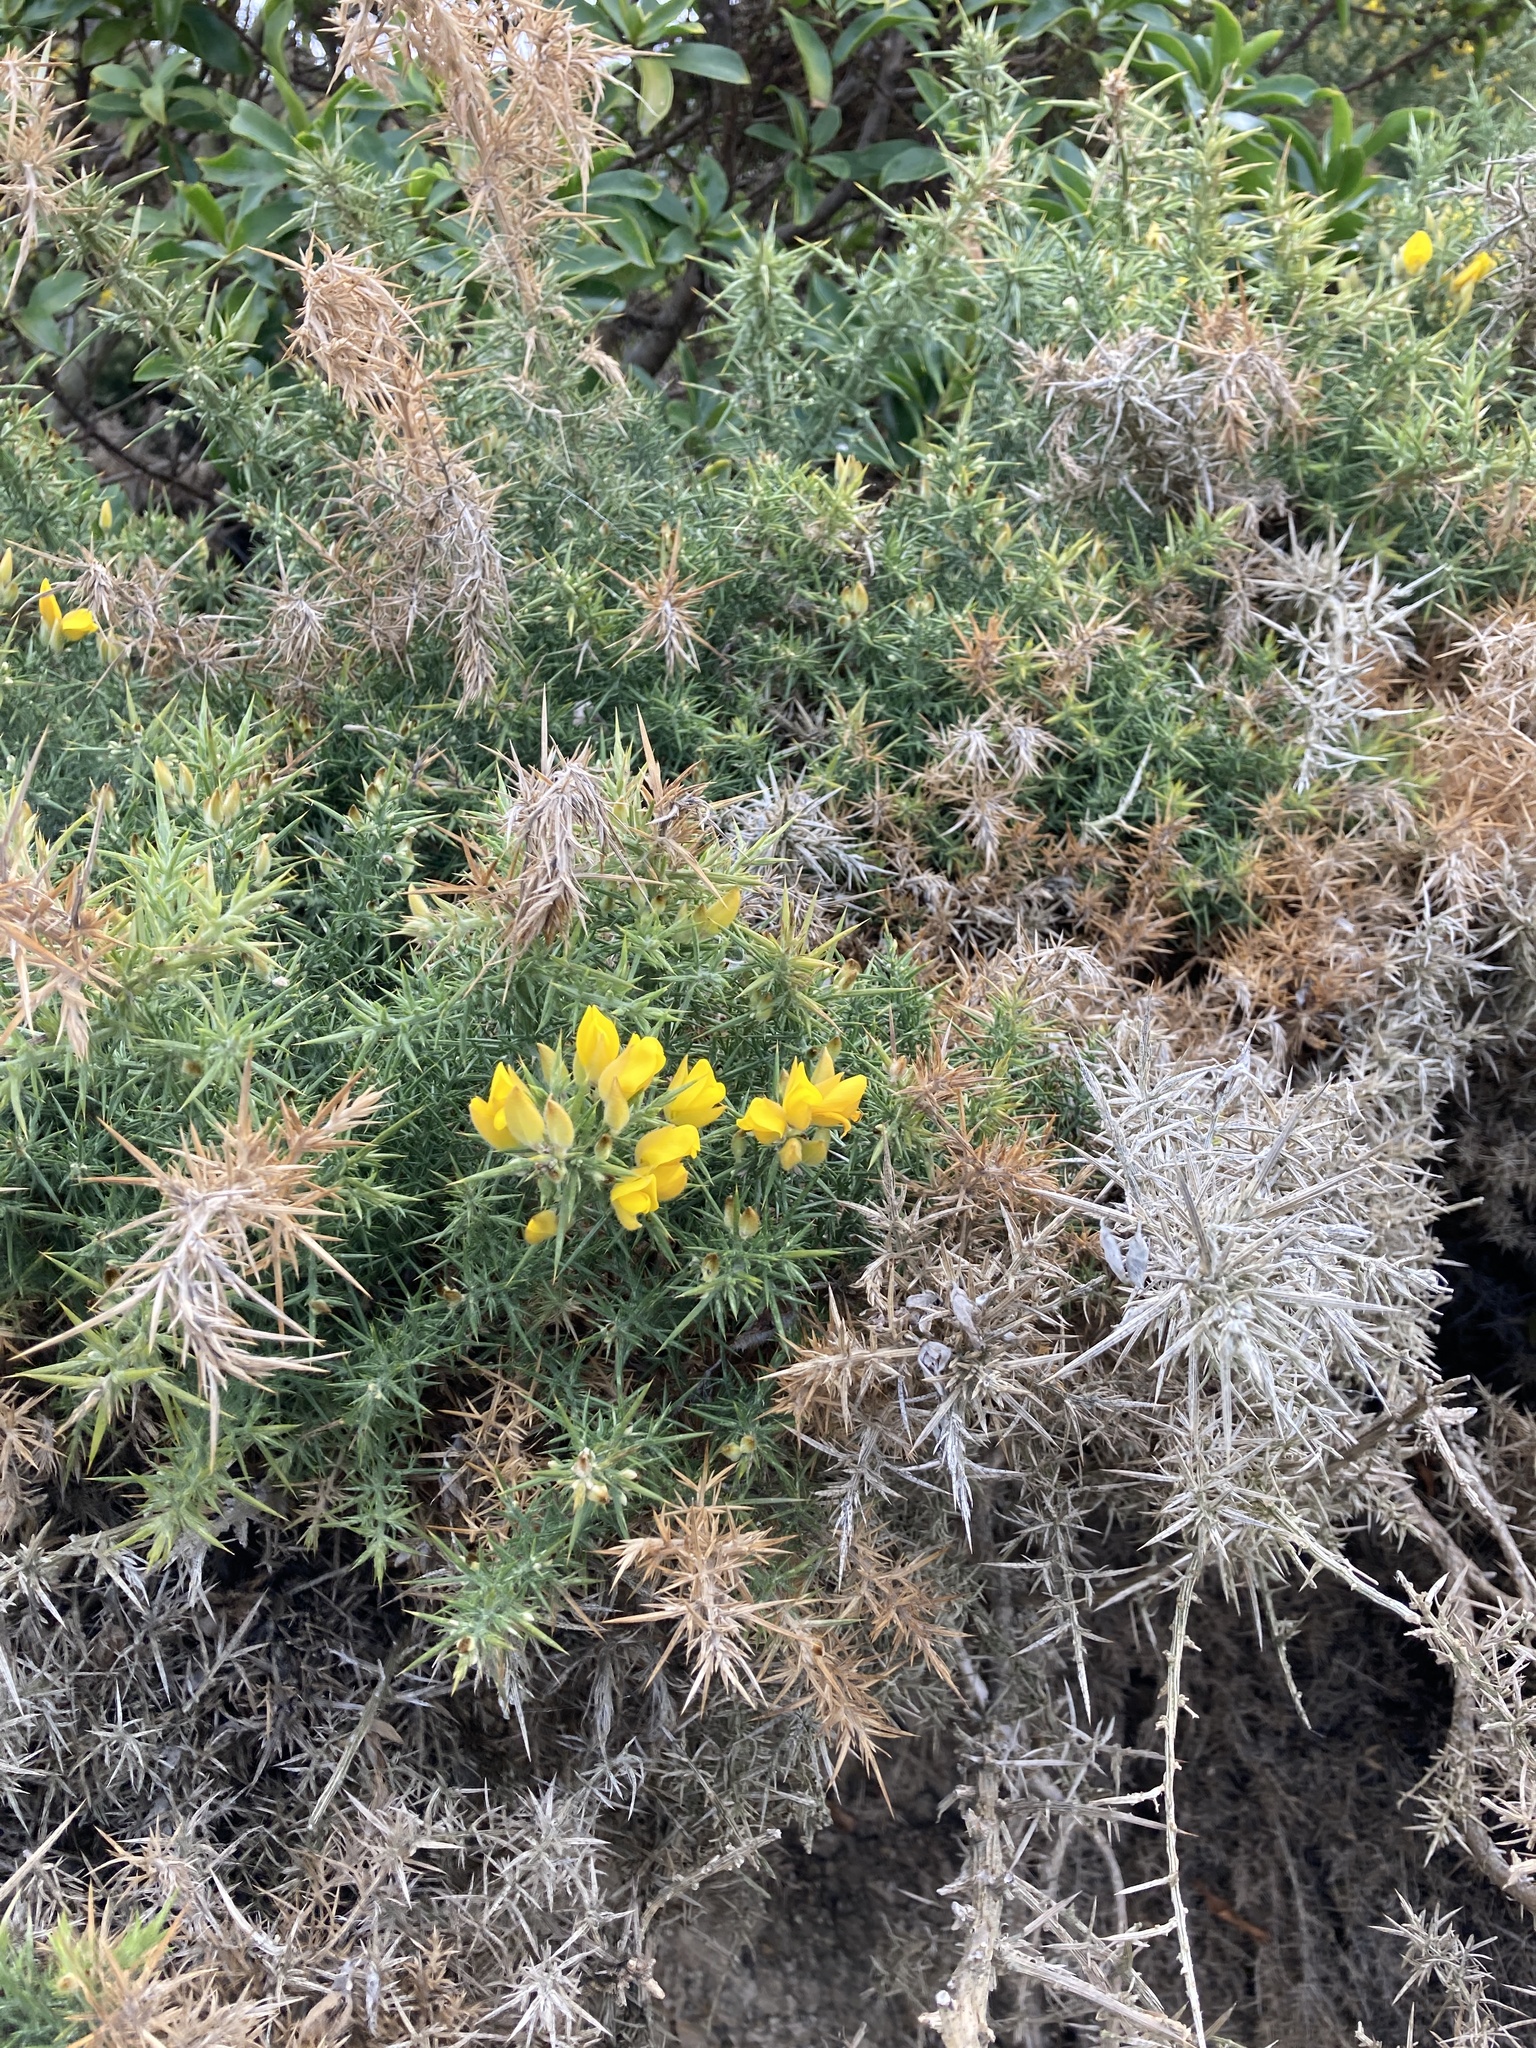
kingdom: Plantae
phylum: Tracheophyta
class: Magnoliopsida
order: Fabales
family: Fabaceae
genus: Ulex
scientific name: Ulex europaeus
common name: Common gorse
